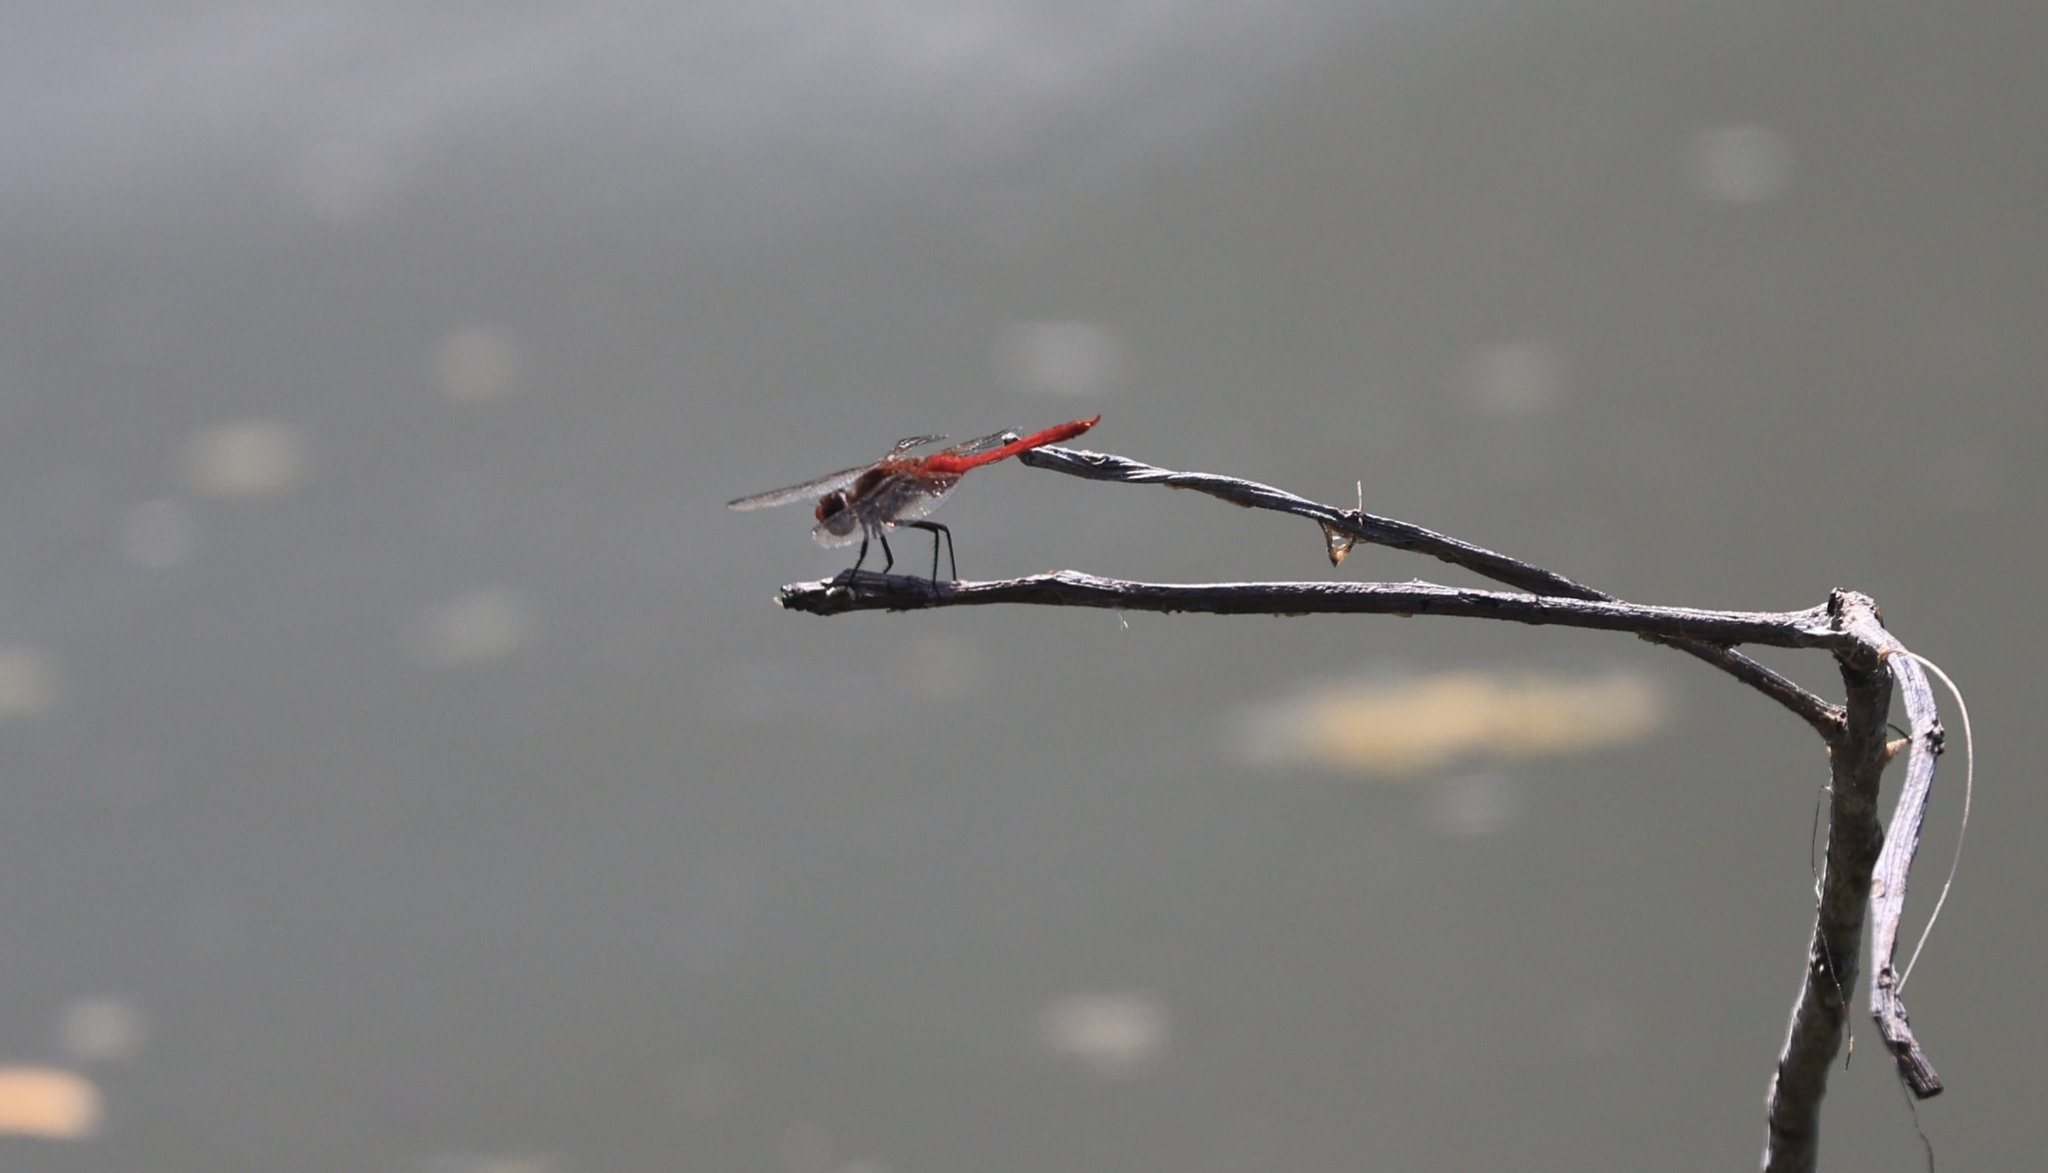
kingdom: Animalia
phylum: Arthropoda
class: Insecta
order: Odonata
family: Libellulidae
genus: Brachymesia
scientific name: Brachymesia furcata
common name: Red-taled pennant
